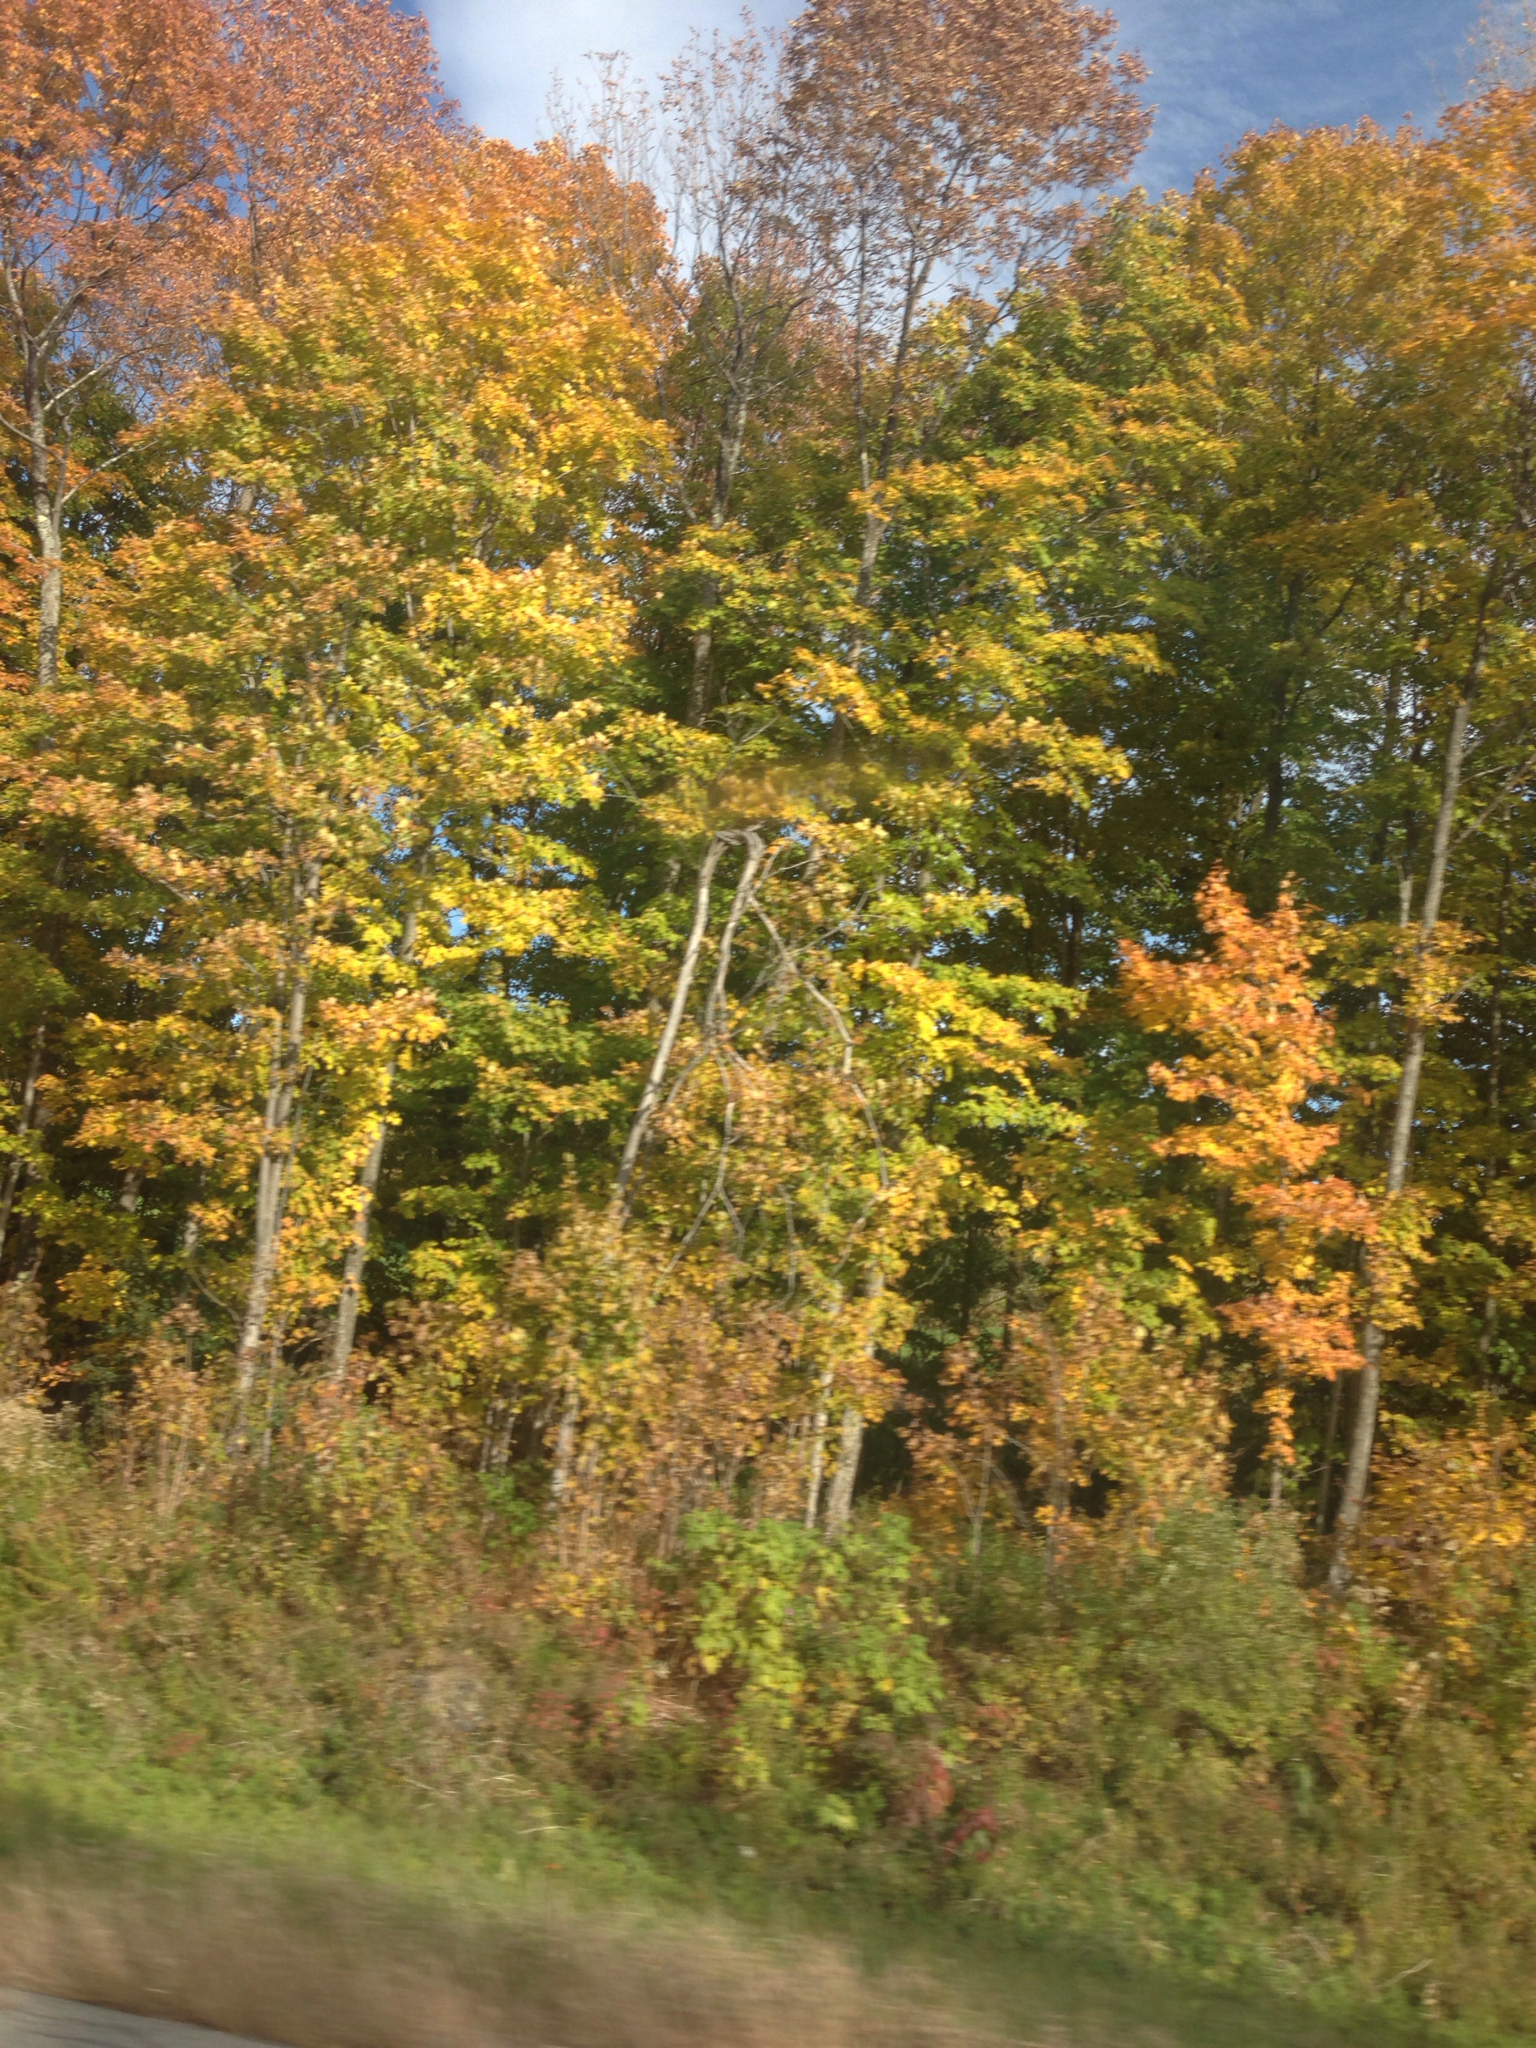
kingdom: Plantae
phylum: Tracheophyta
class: Magnoliopsida
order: Sapindales
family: Sapindaceae
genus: Acer
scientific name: Acer saccharum
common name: Sugar maple
